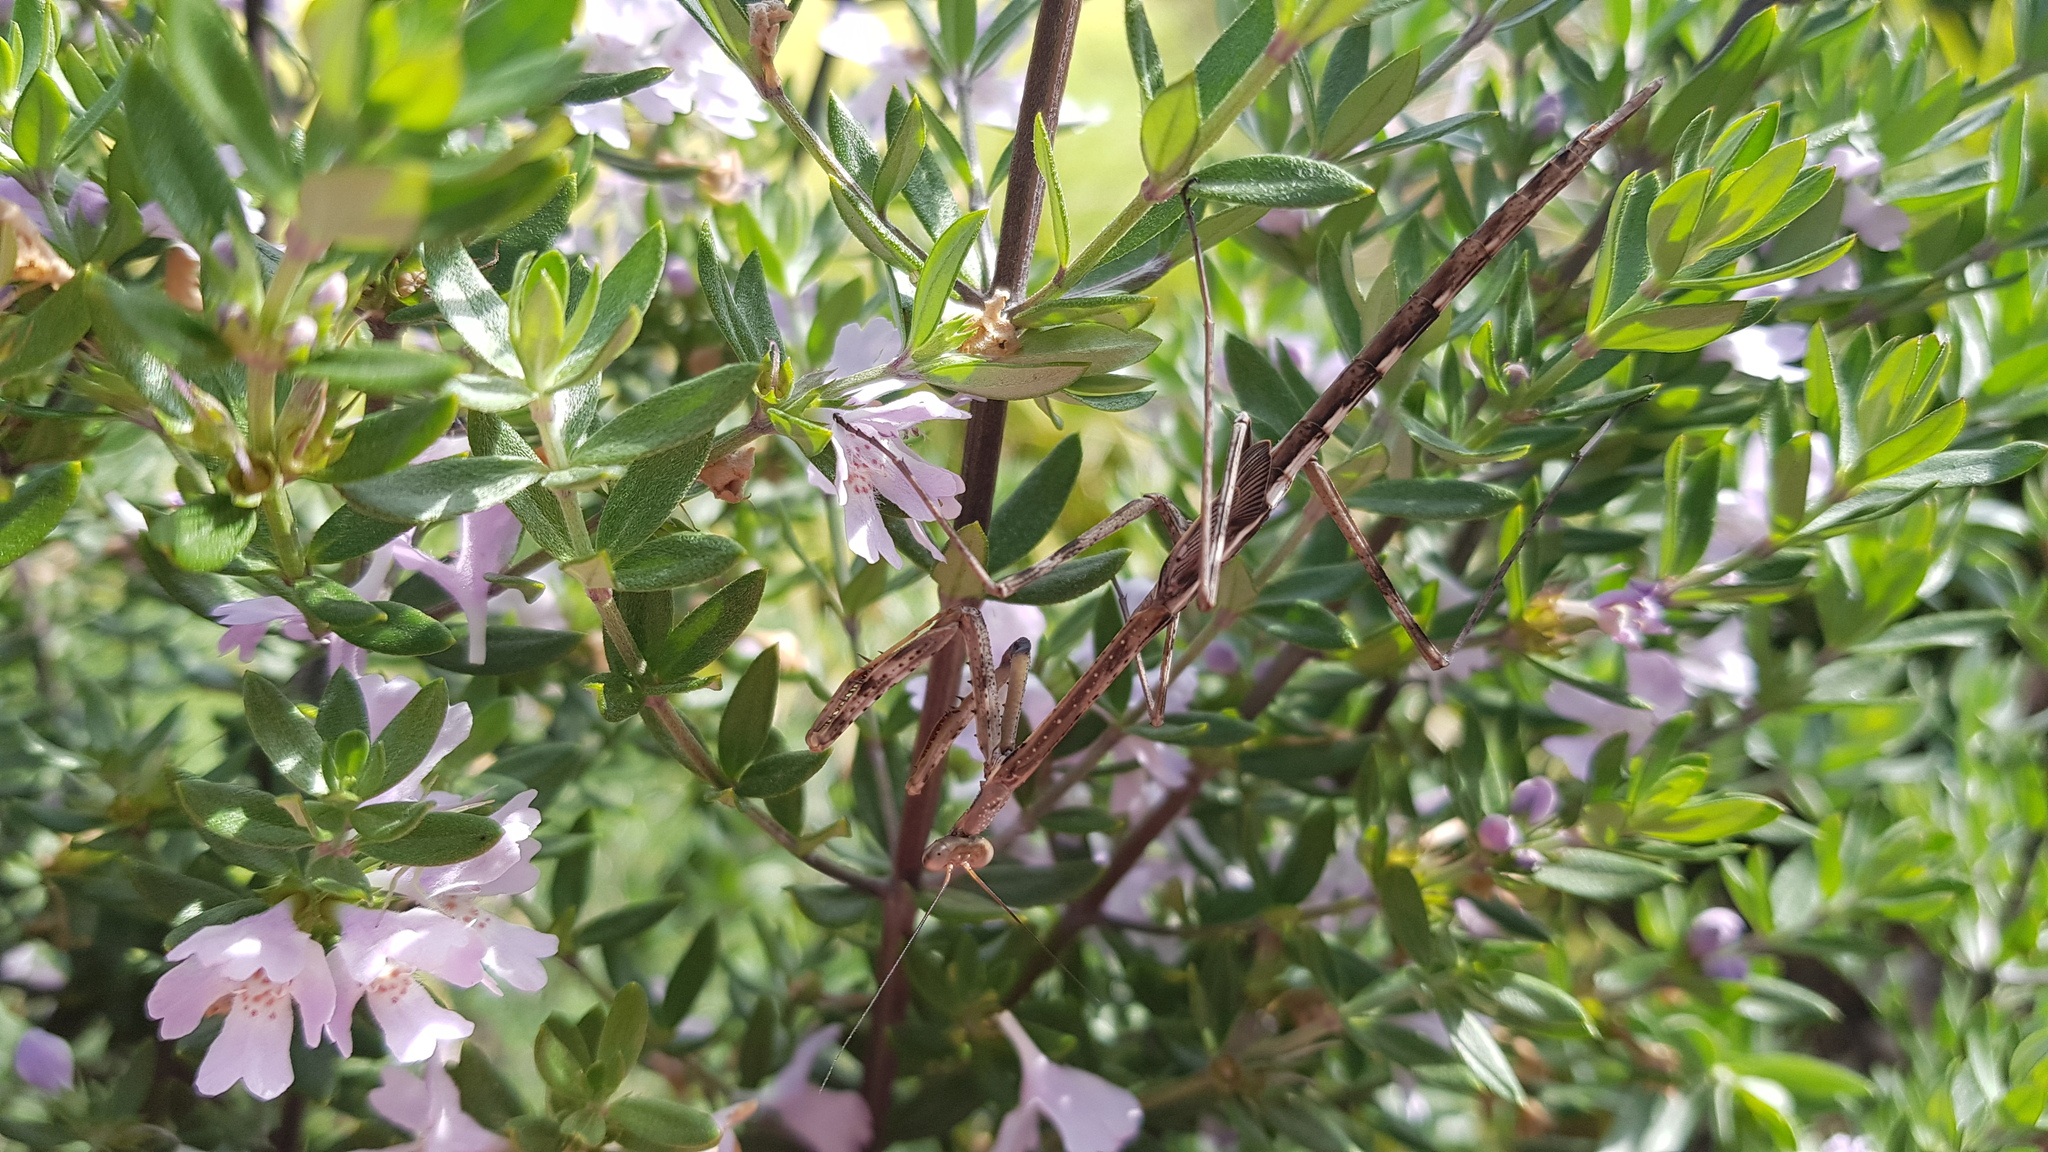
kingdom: Animalia
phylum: Arthropoda
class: Insecta
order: Mantodea
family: Mantidae
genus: Archimantis
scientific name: Archimantis latistyla
